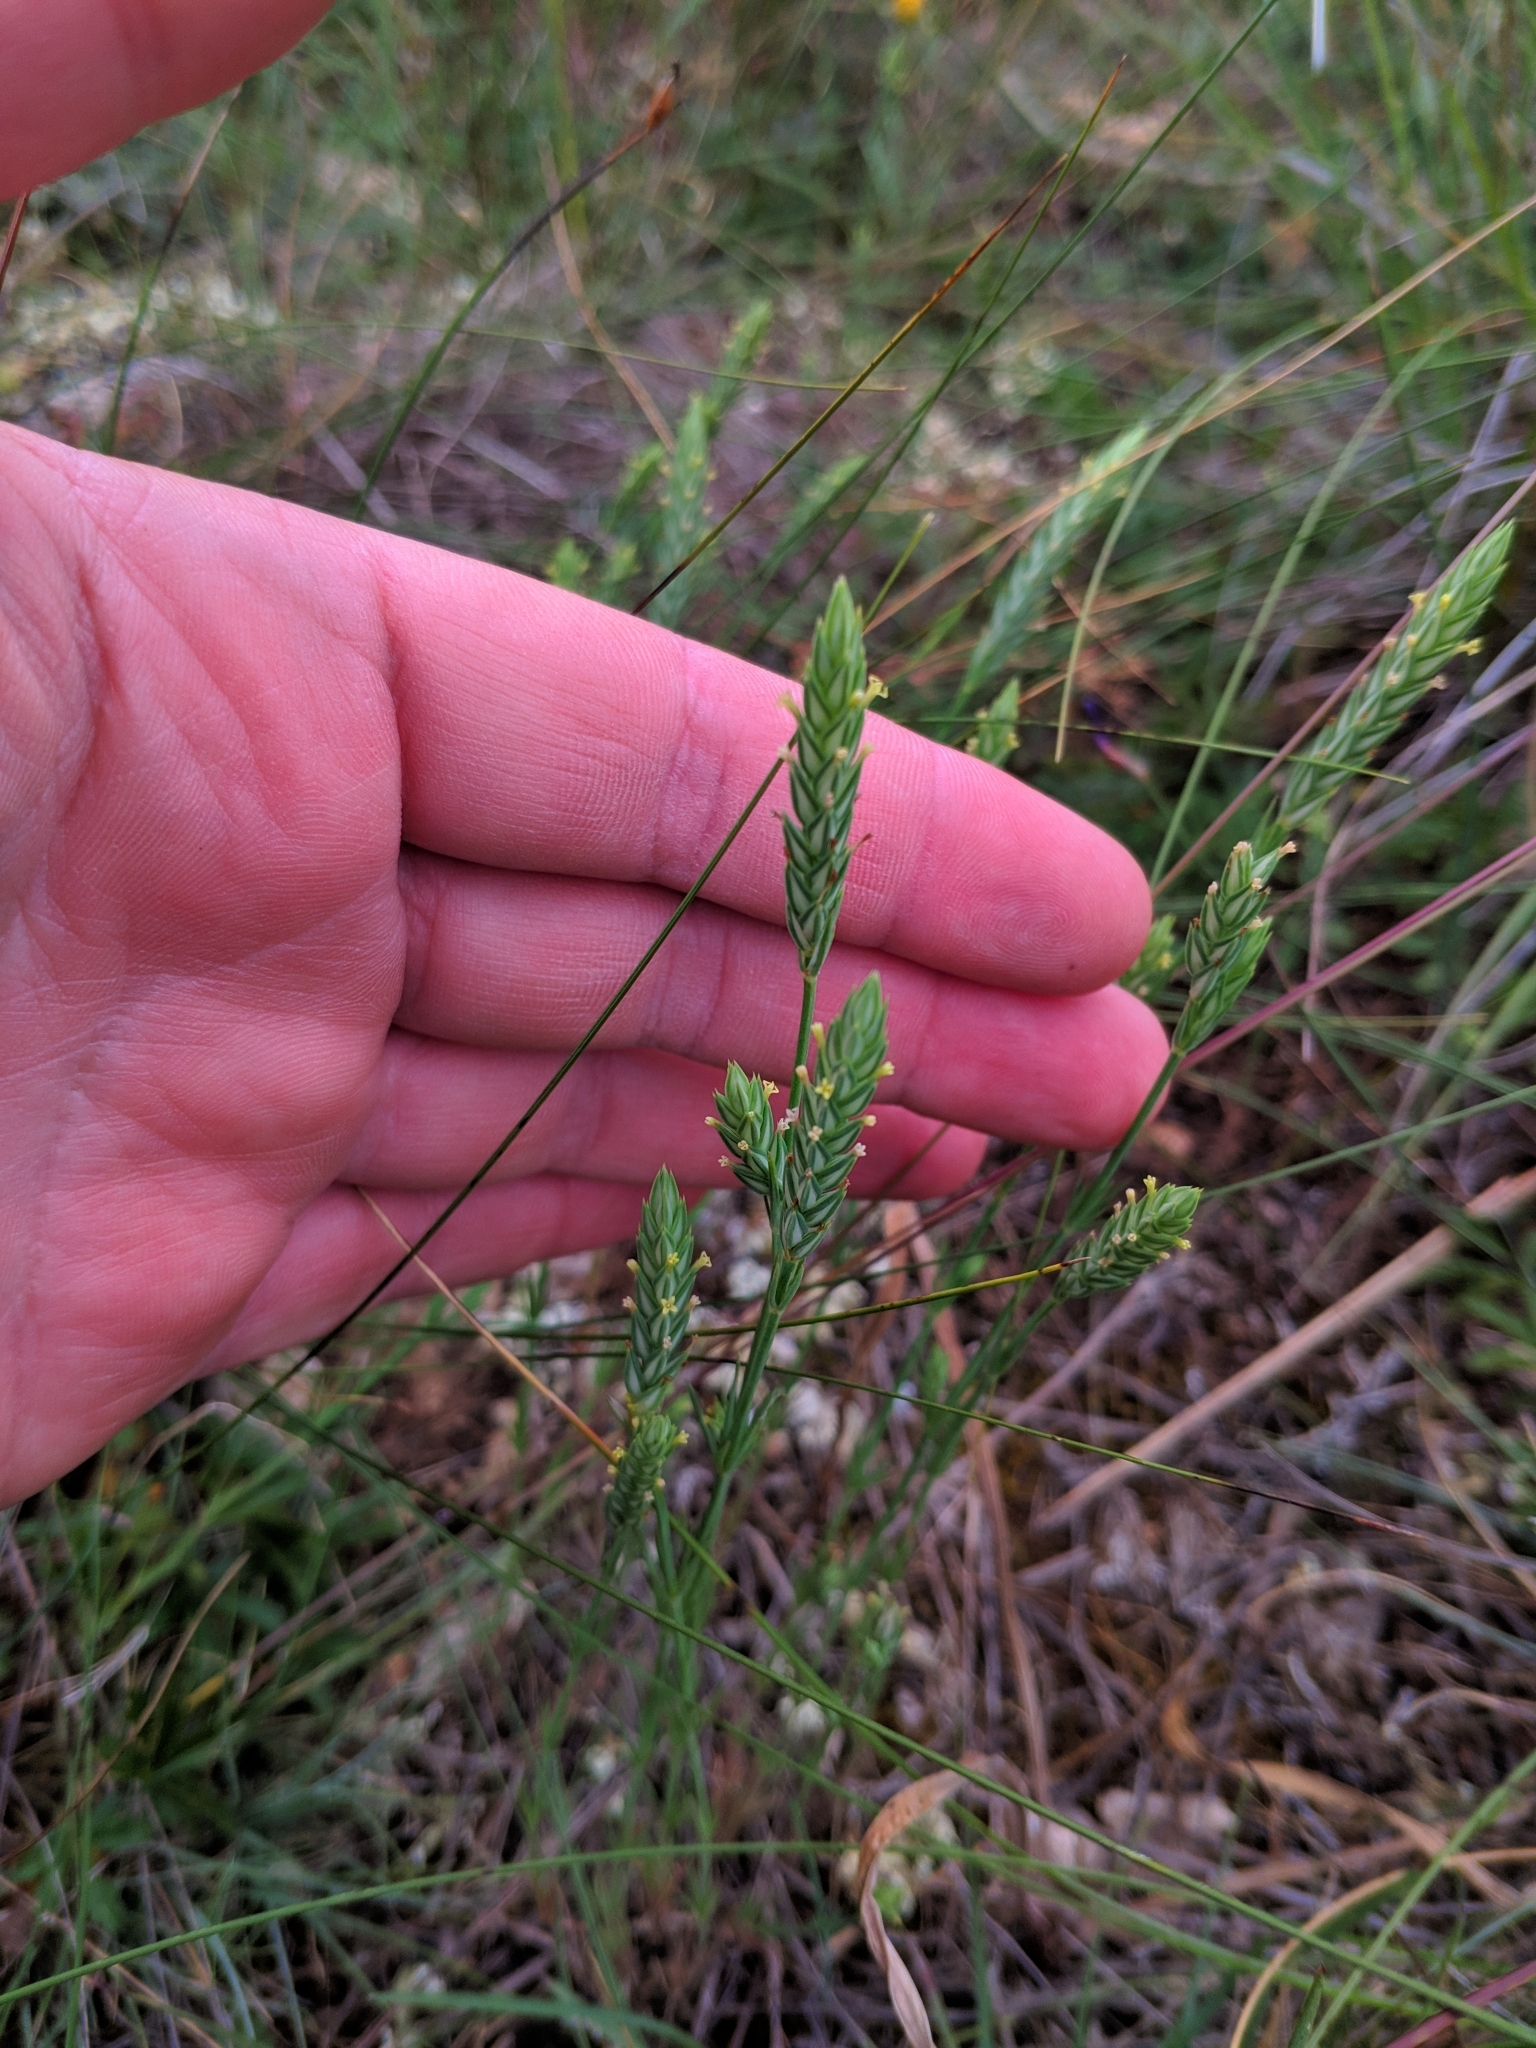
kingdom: Plantae
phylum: Tracheophyta
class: Magnoliopsida
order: Gentianales
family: Rubiaceae
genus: Crucianella
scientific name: Crucianella angustifolia
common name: Narrowleaf crucianella
